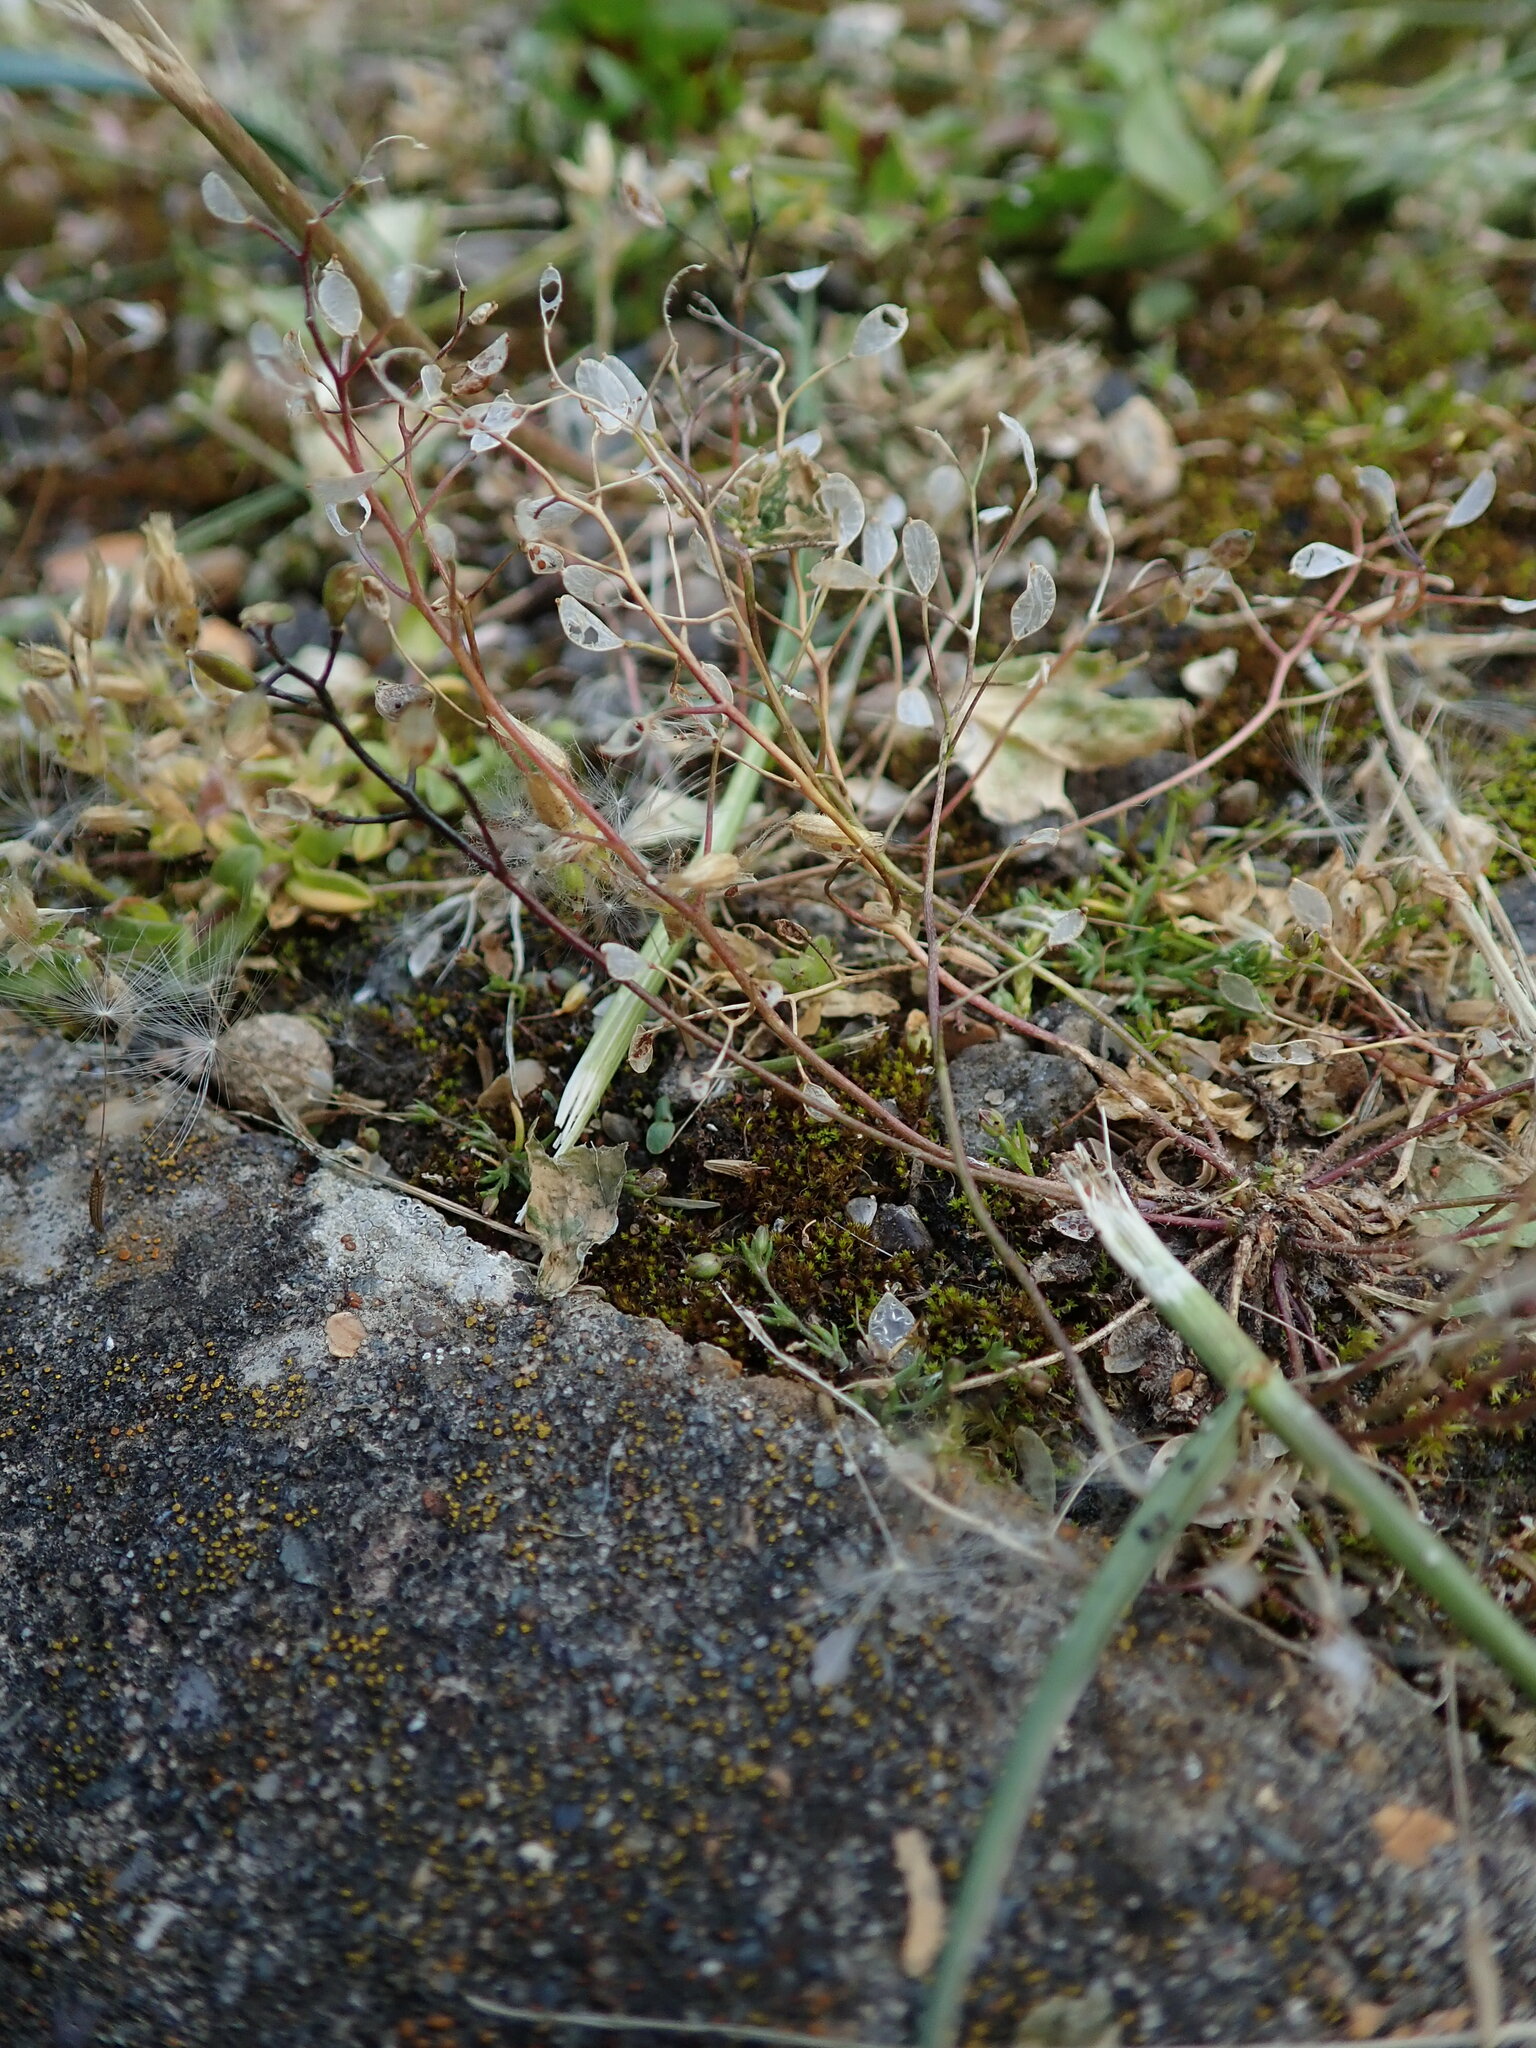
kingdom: Plantae
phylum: Tracheophyta
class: Magnoliopsida
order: Brassicales
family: Brassicaceae
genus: Draba
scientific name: Draba verna
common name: Spring draba
